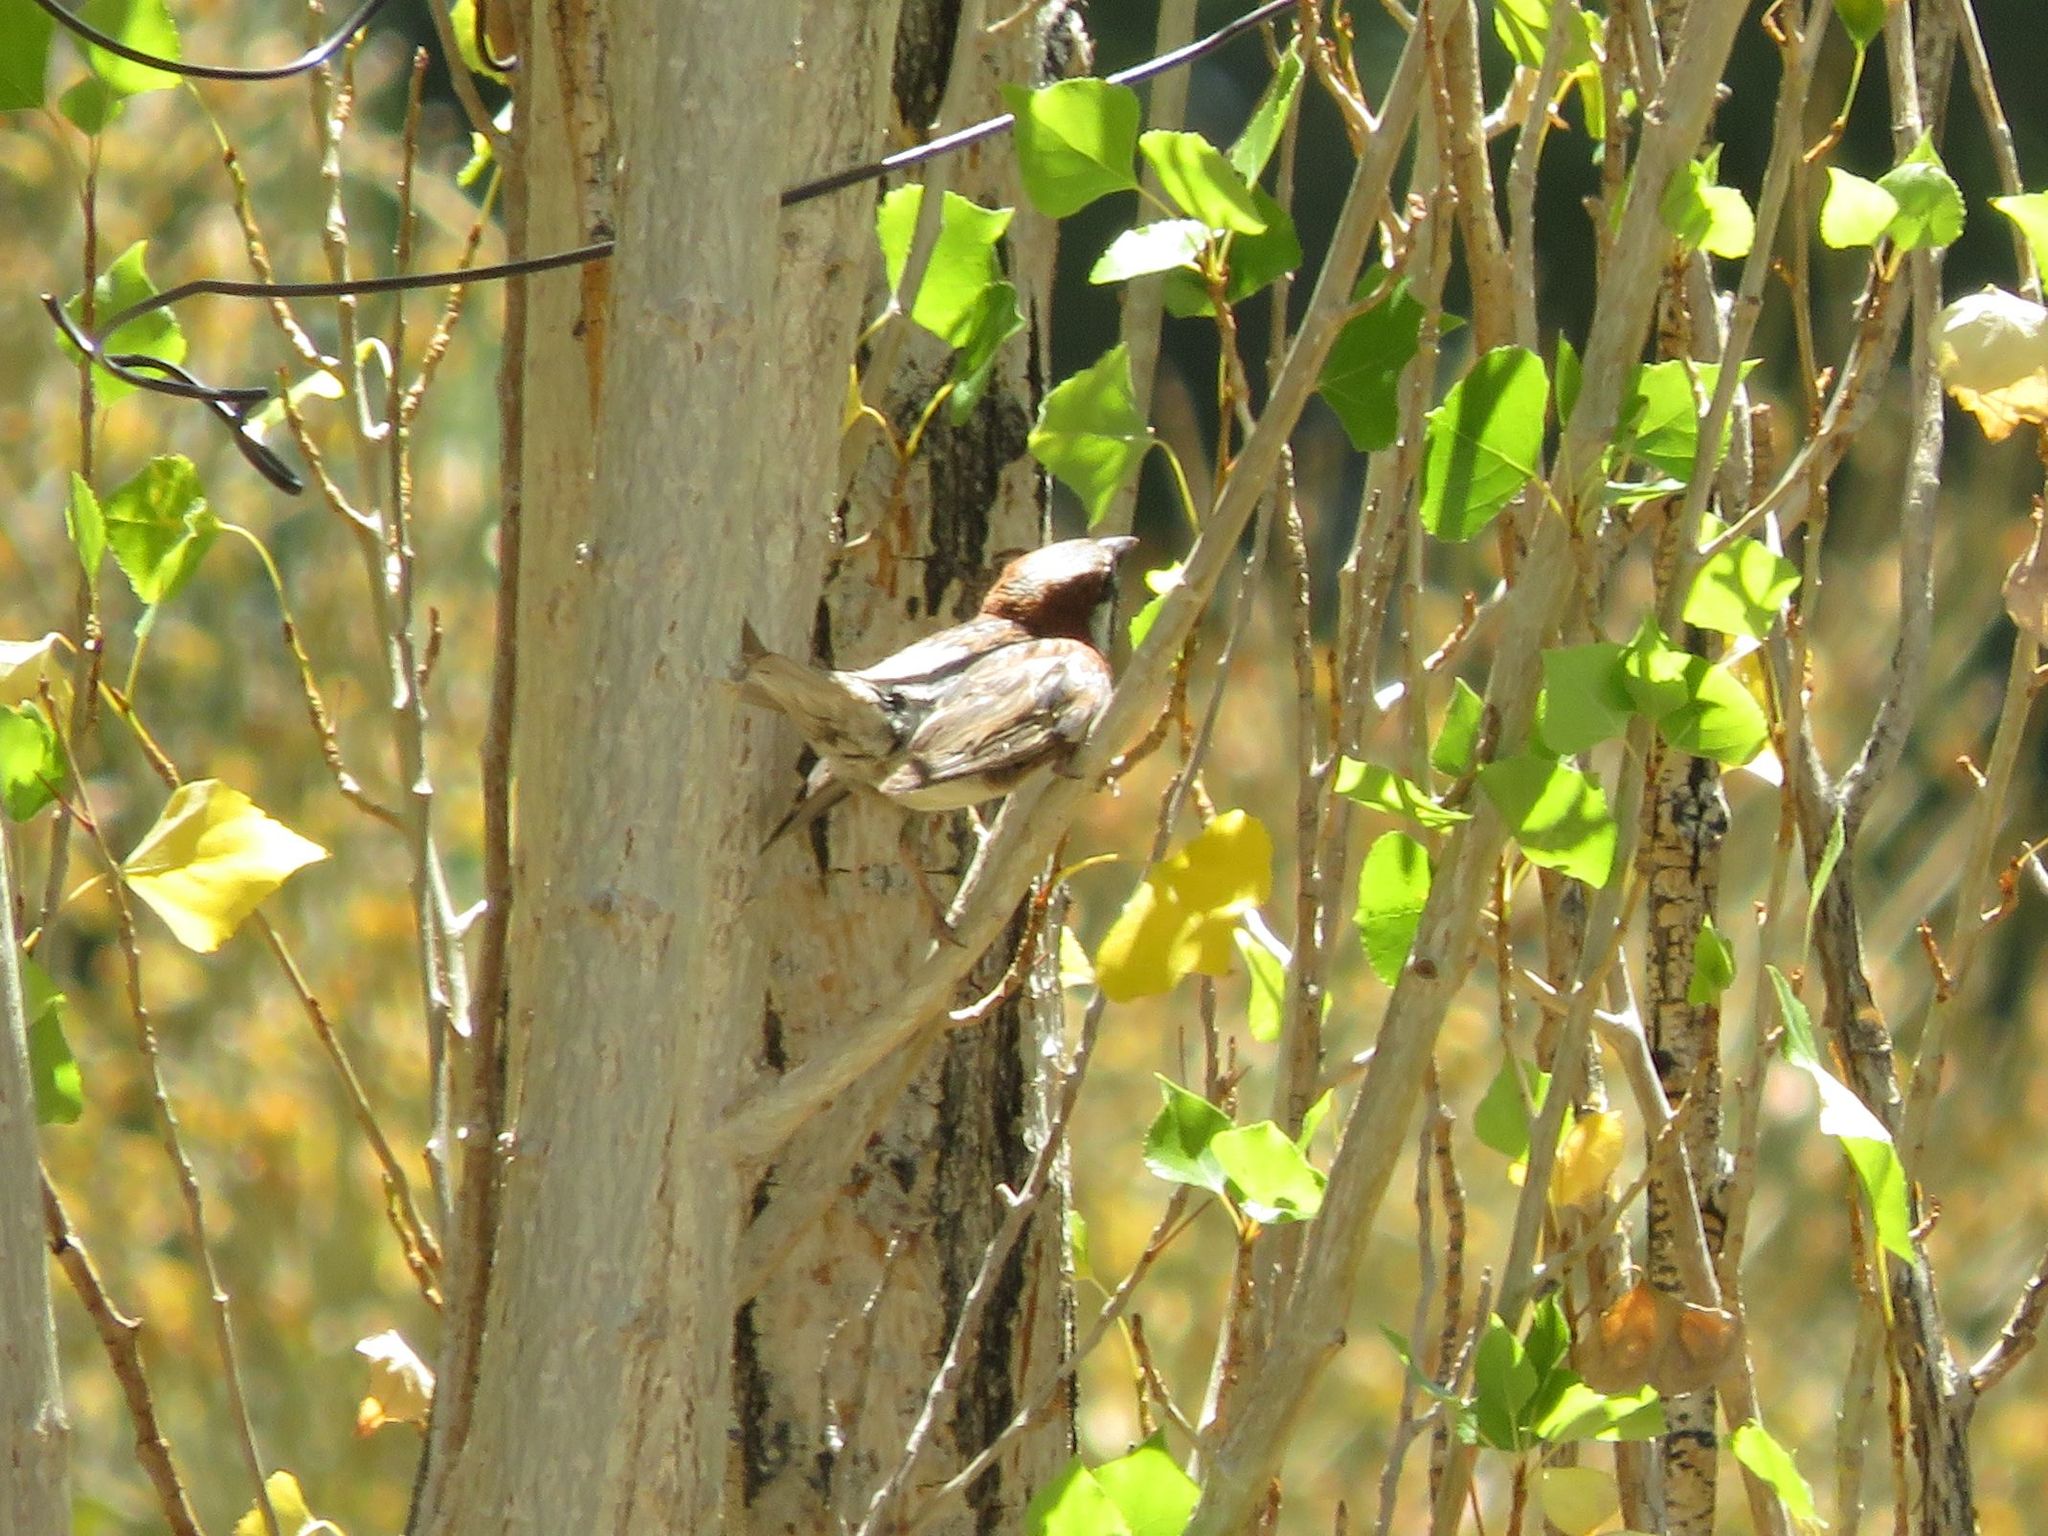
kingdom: Animalia
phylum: Chordata
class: Aves
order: Passeriformes
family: Passeridae
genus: Passer
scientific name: Passer domesticus
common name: House sparrow
